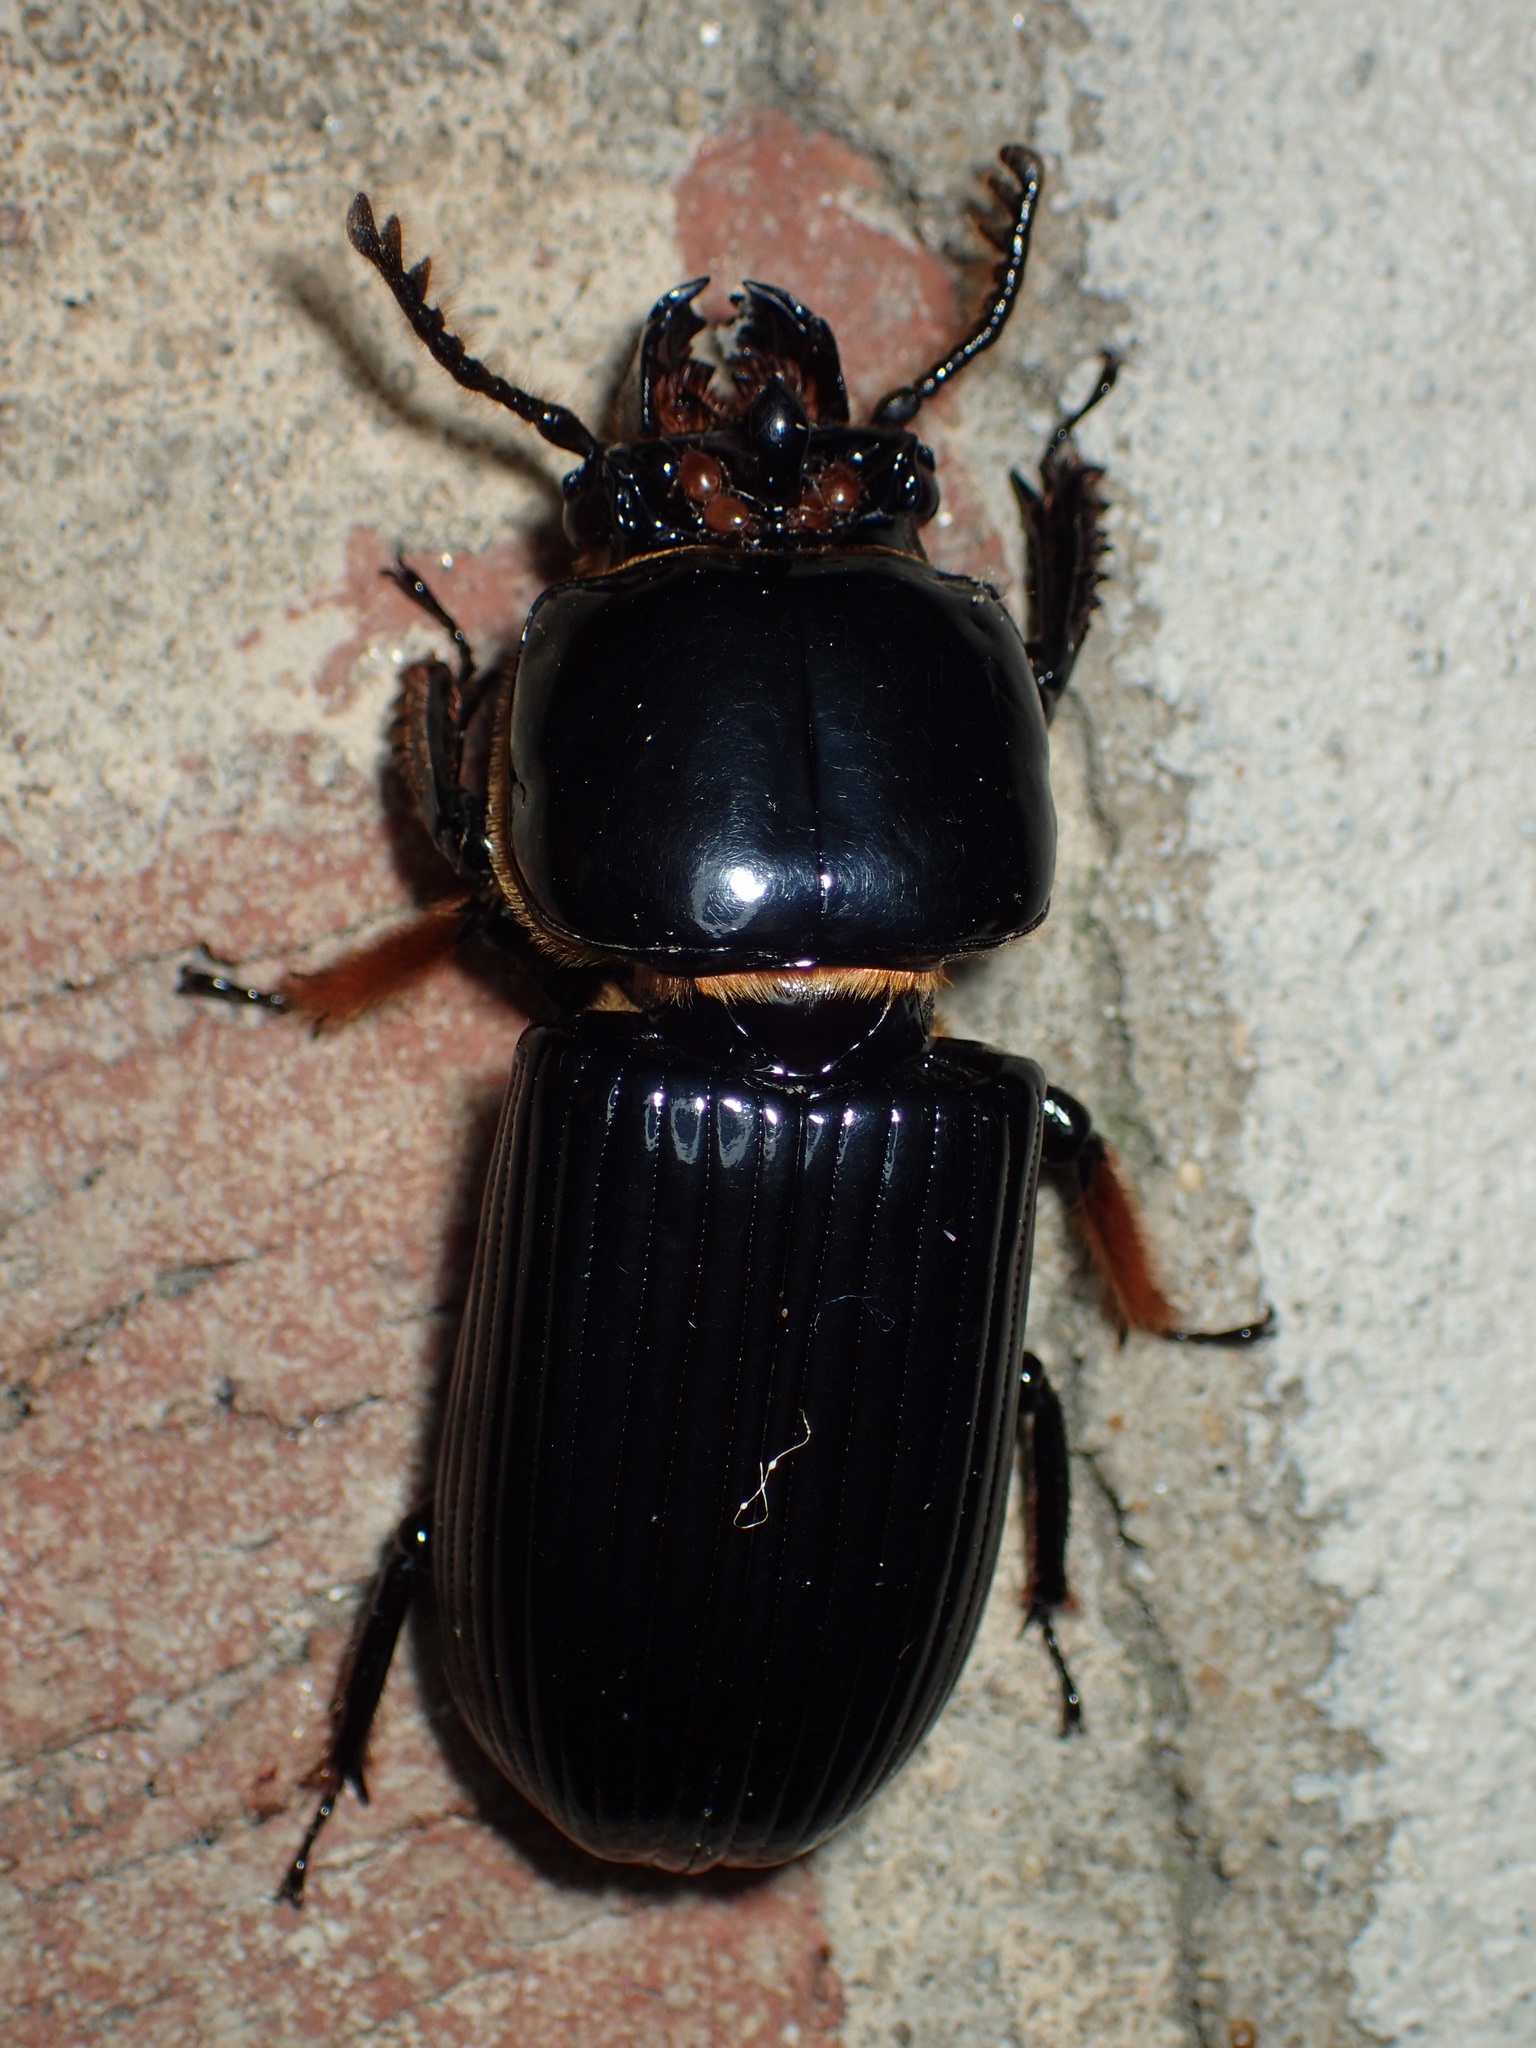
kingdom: Animalia
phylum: Arthropoda
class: Insecta
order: Coleoptera
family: Passalidae
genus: Odontotaenius
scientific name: Odontotaenius disjunctus
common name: Patent leather beetle
